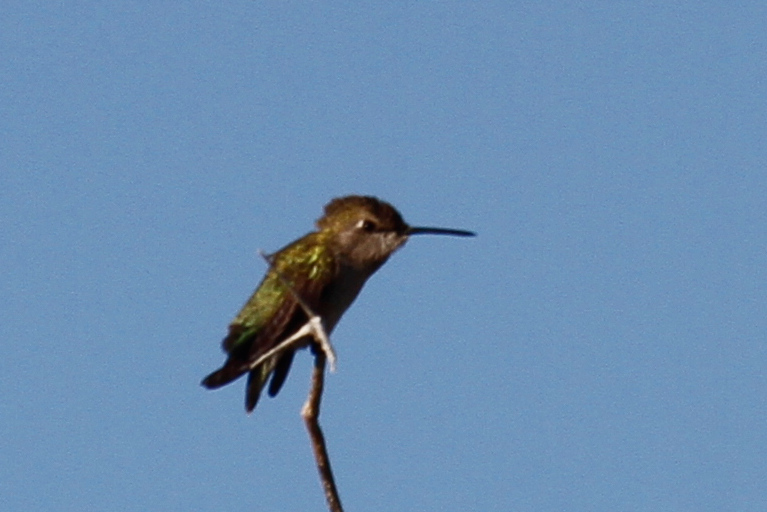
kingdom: Animalia
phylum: Chordata
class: Aves
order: Apodiformes
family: Trochilidae
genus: Calypte
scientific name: Calypte costae
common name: Costa's hummingbird
